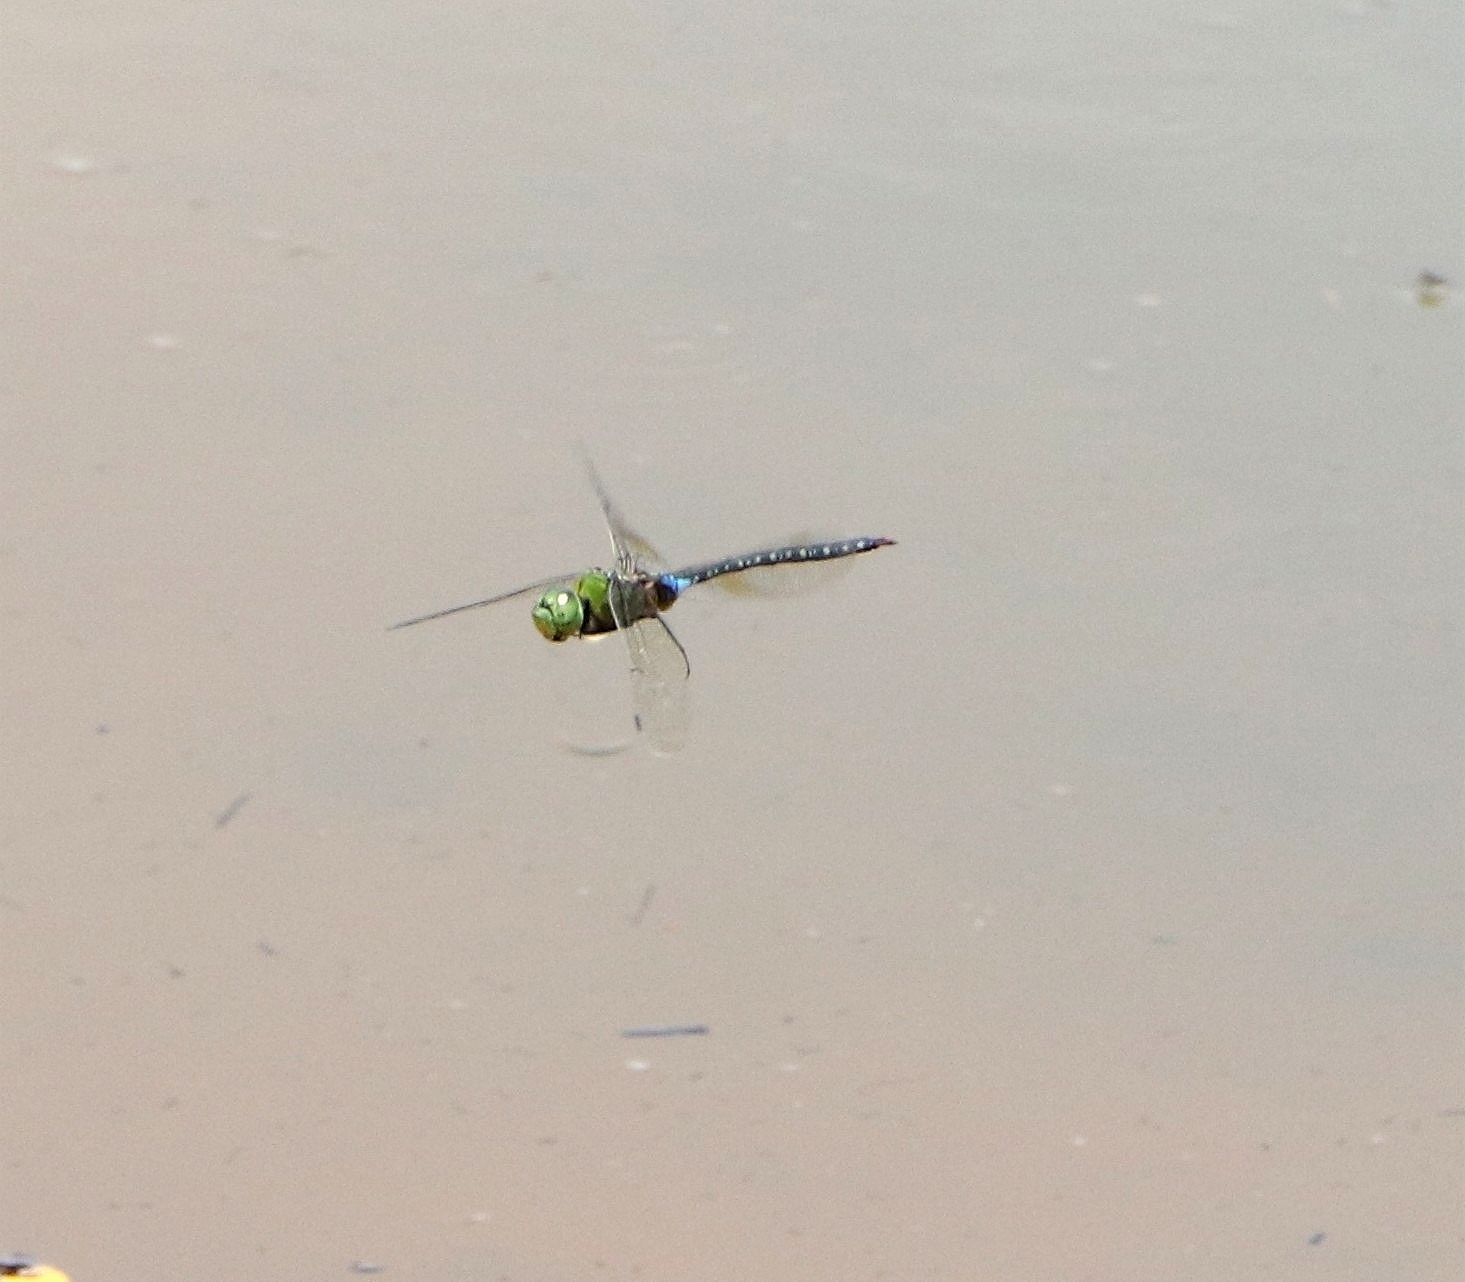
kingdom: Animalia
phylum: Arthropoda
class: Insecta
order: Odonata
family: Aeshnidae
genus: Anax
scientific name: Anax guttatus
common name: Emperor
